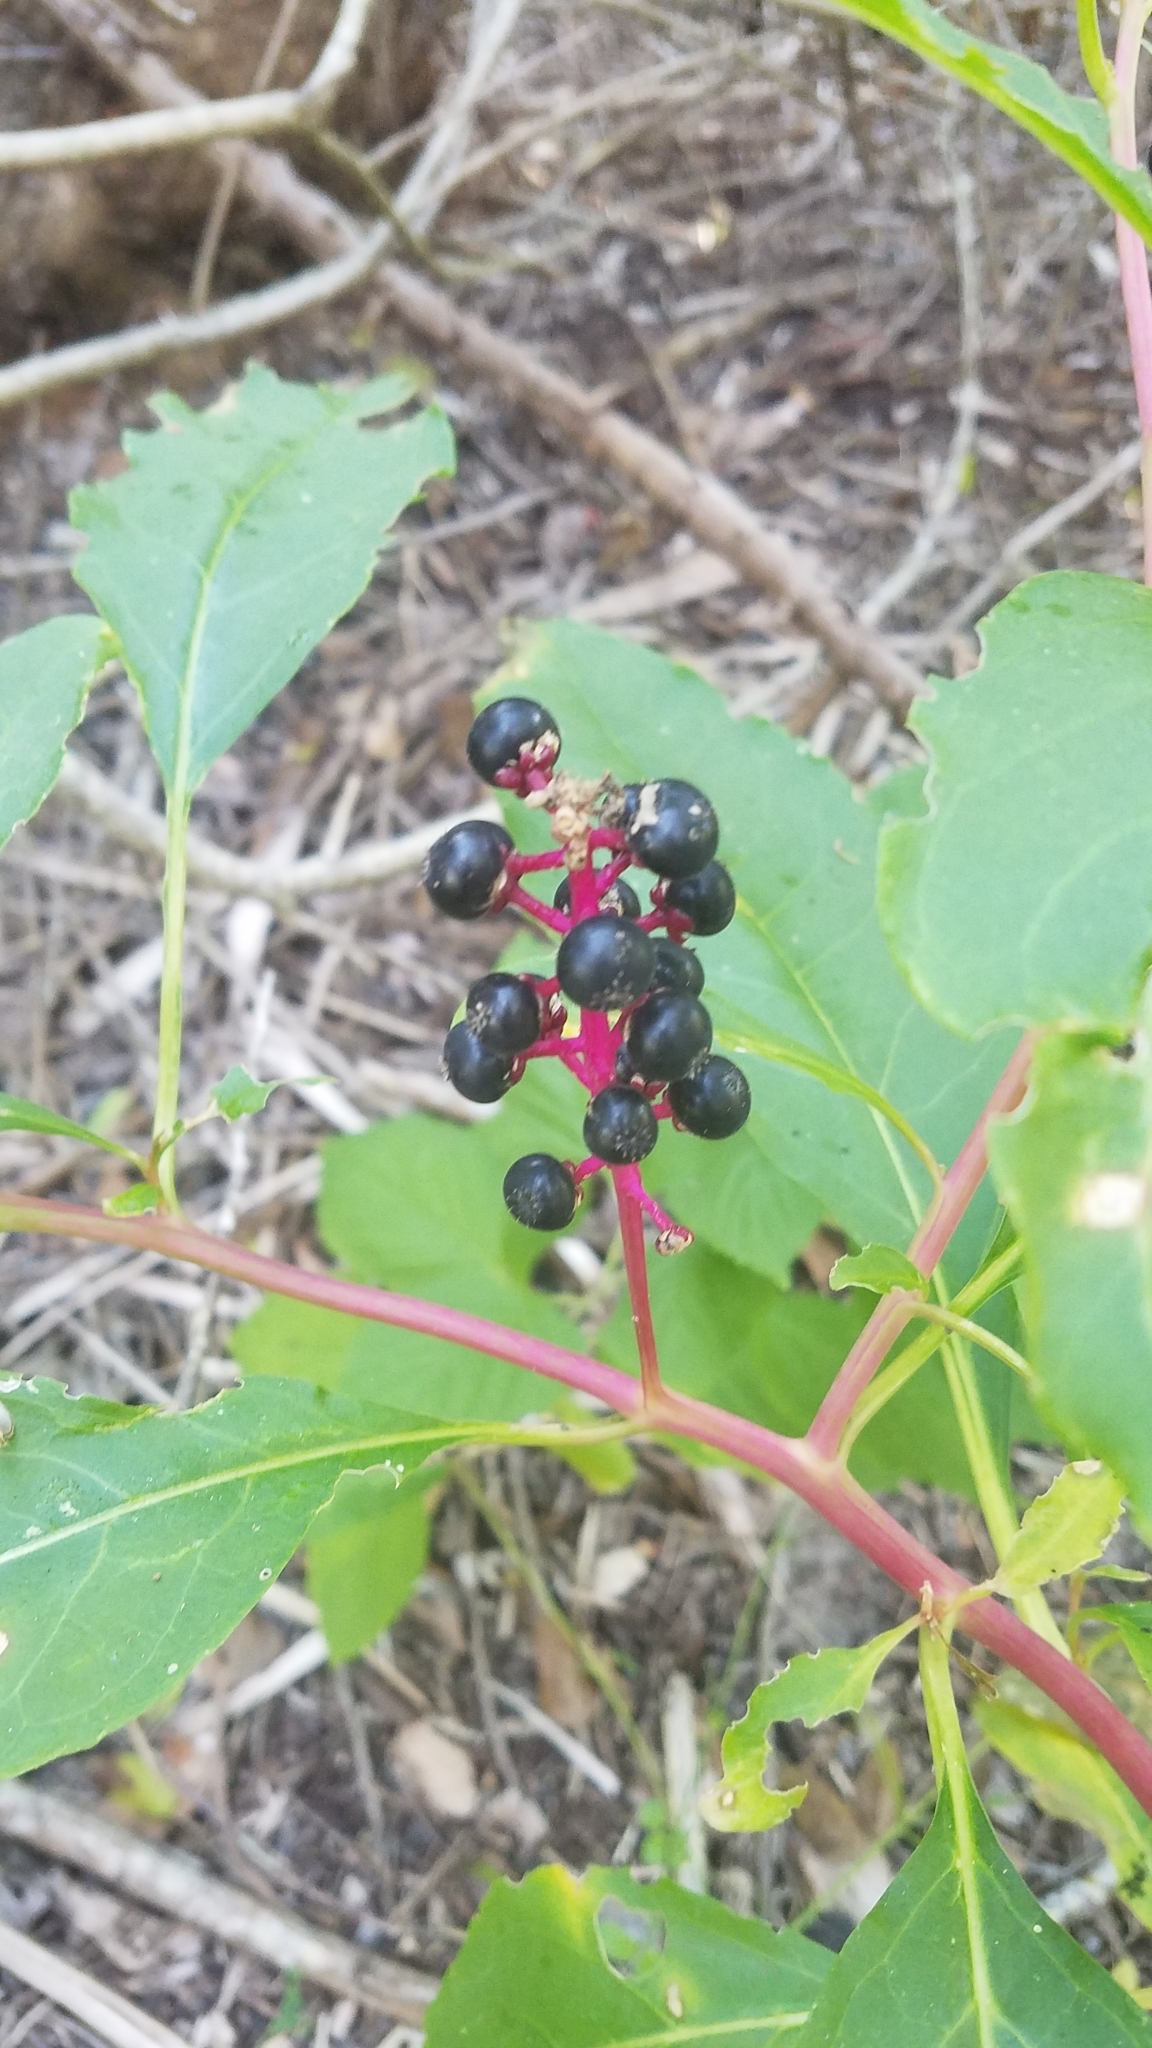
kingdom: Plantae
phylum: Tracheophyta
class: Magnoliopsida
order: Caryophyllales
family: Phytolaccaceae
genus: Phytolacca
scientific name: Phytolacca americana
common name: American pokeweed
